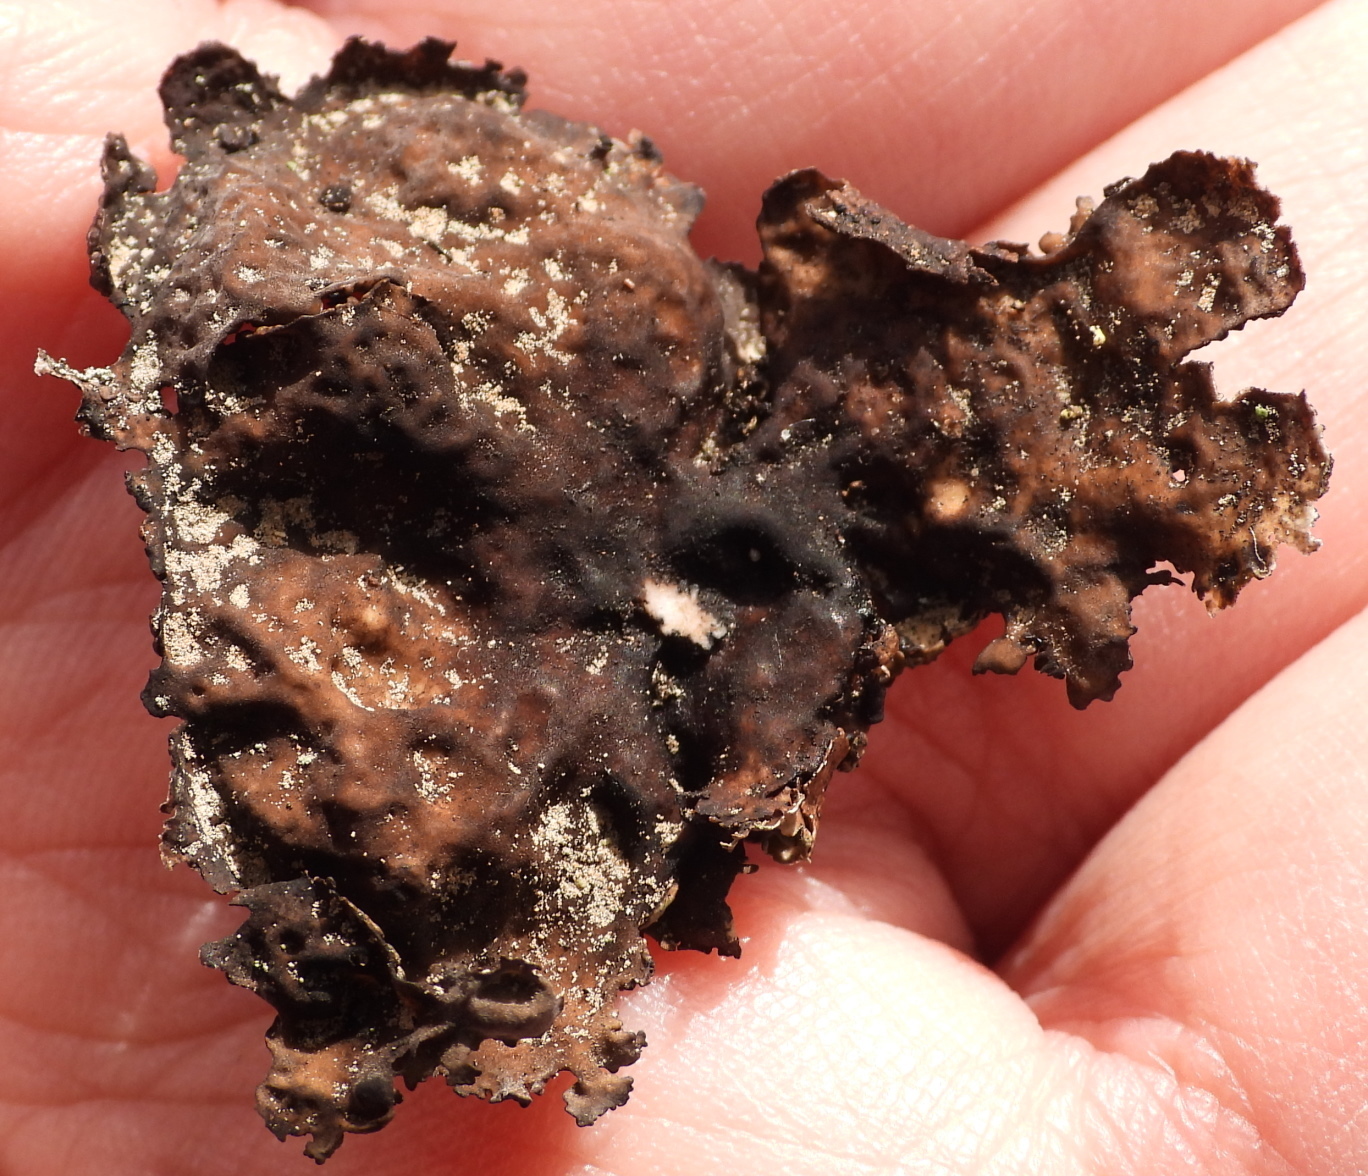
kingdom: Fungi
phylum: Ascomycota
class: Lecanoromycetes
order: Umbilicariales
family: Umbilicariaceae
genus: Umbilicaria
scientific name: Umbilicaria hyperborea
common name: Blistered rock tripe
